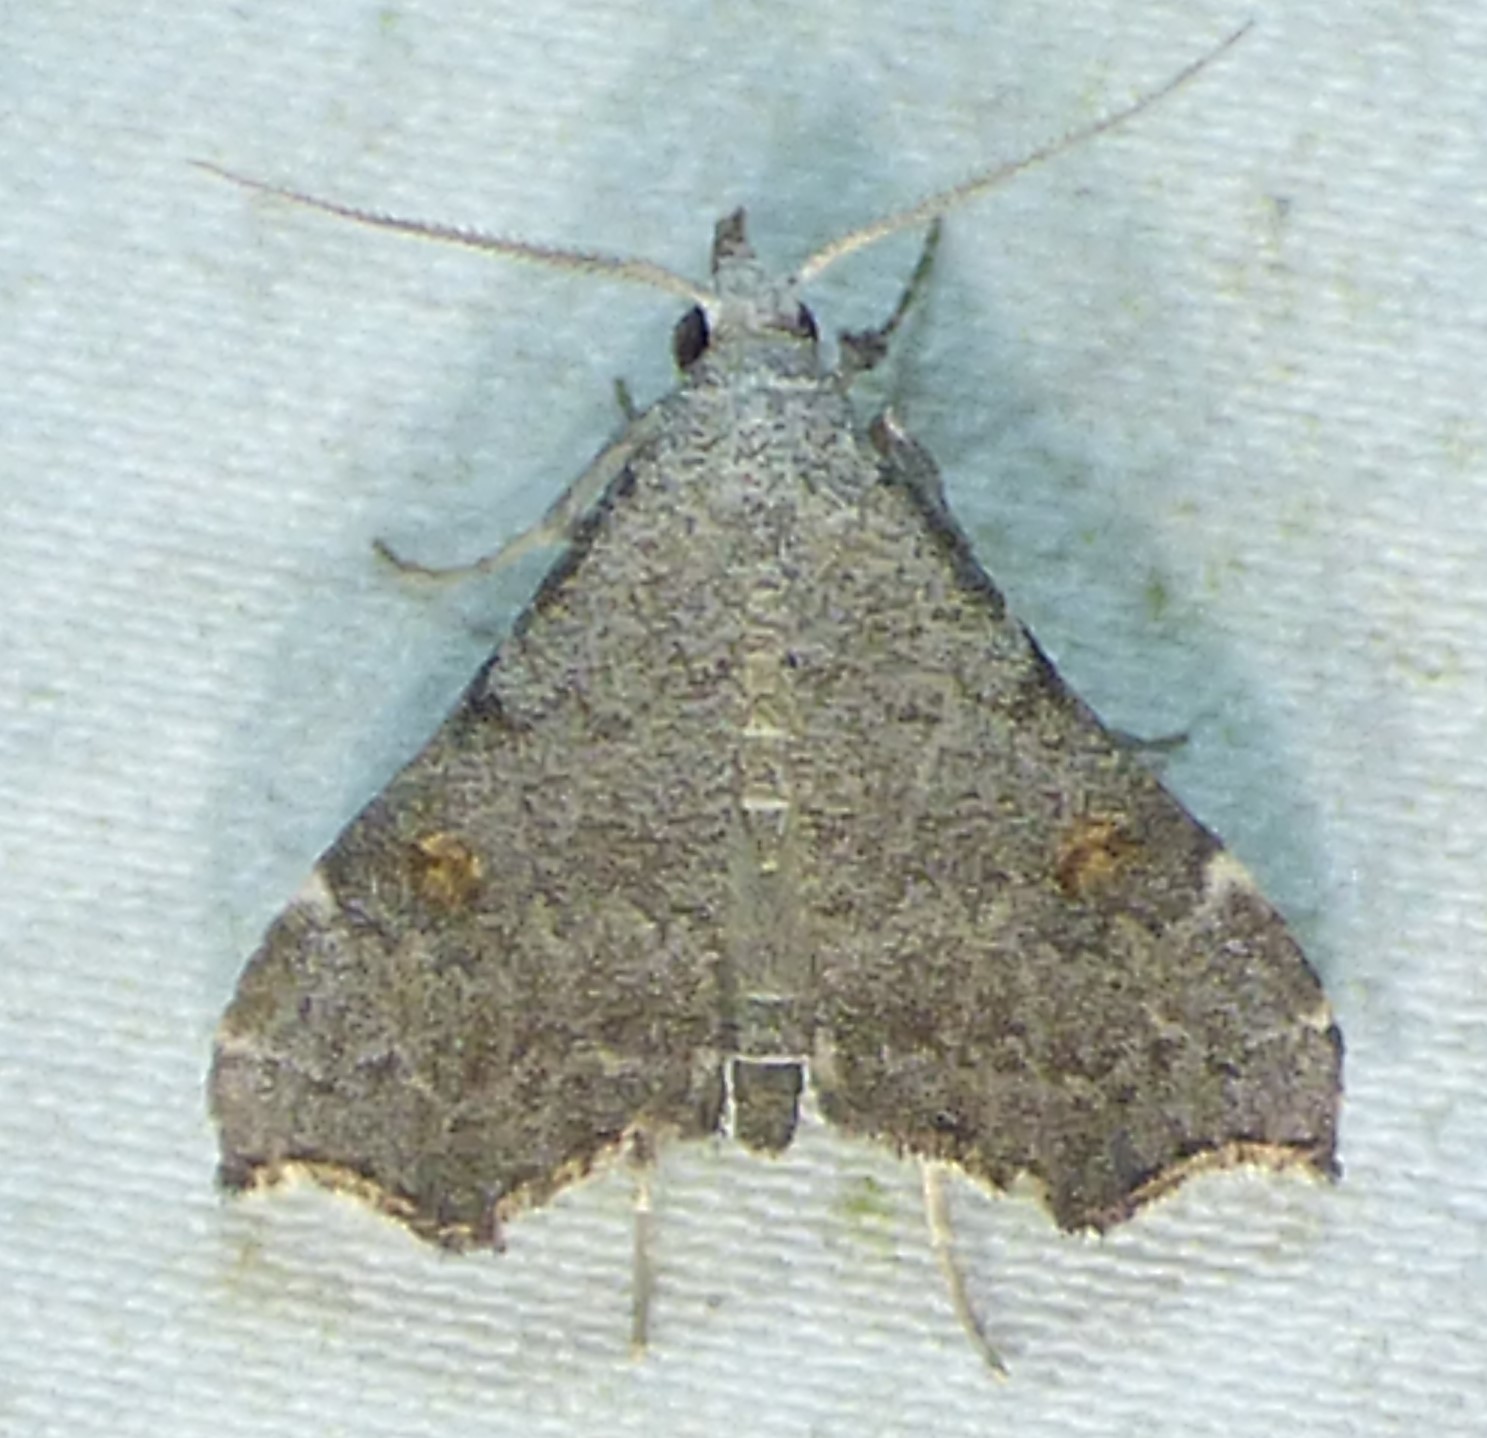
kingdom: Animalia
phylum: Arthropoda
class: Insecta
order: Lepidoptera
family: Erebidae
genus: Redectis
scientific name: Redectis pygmaea
